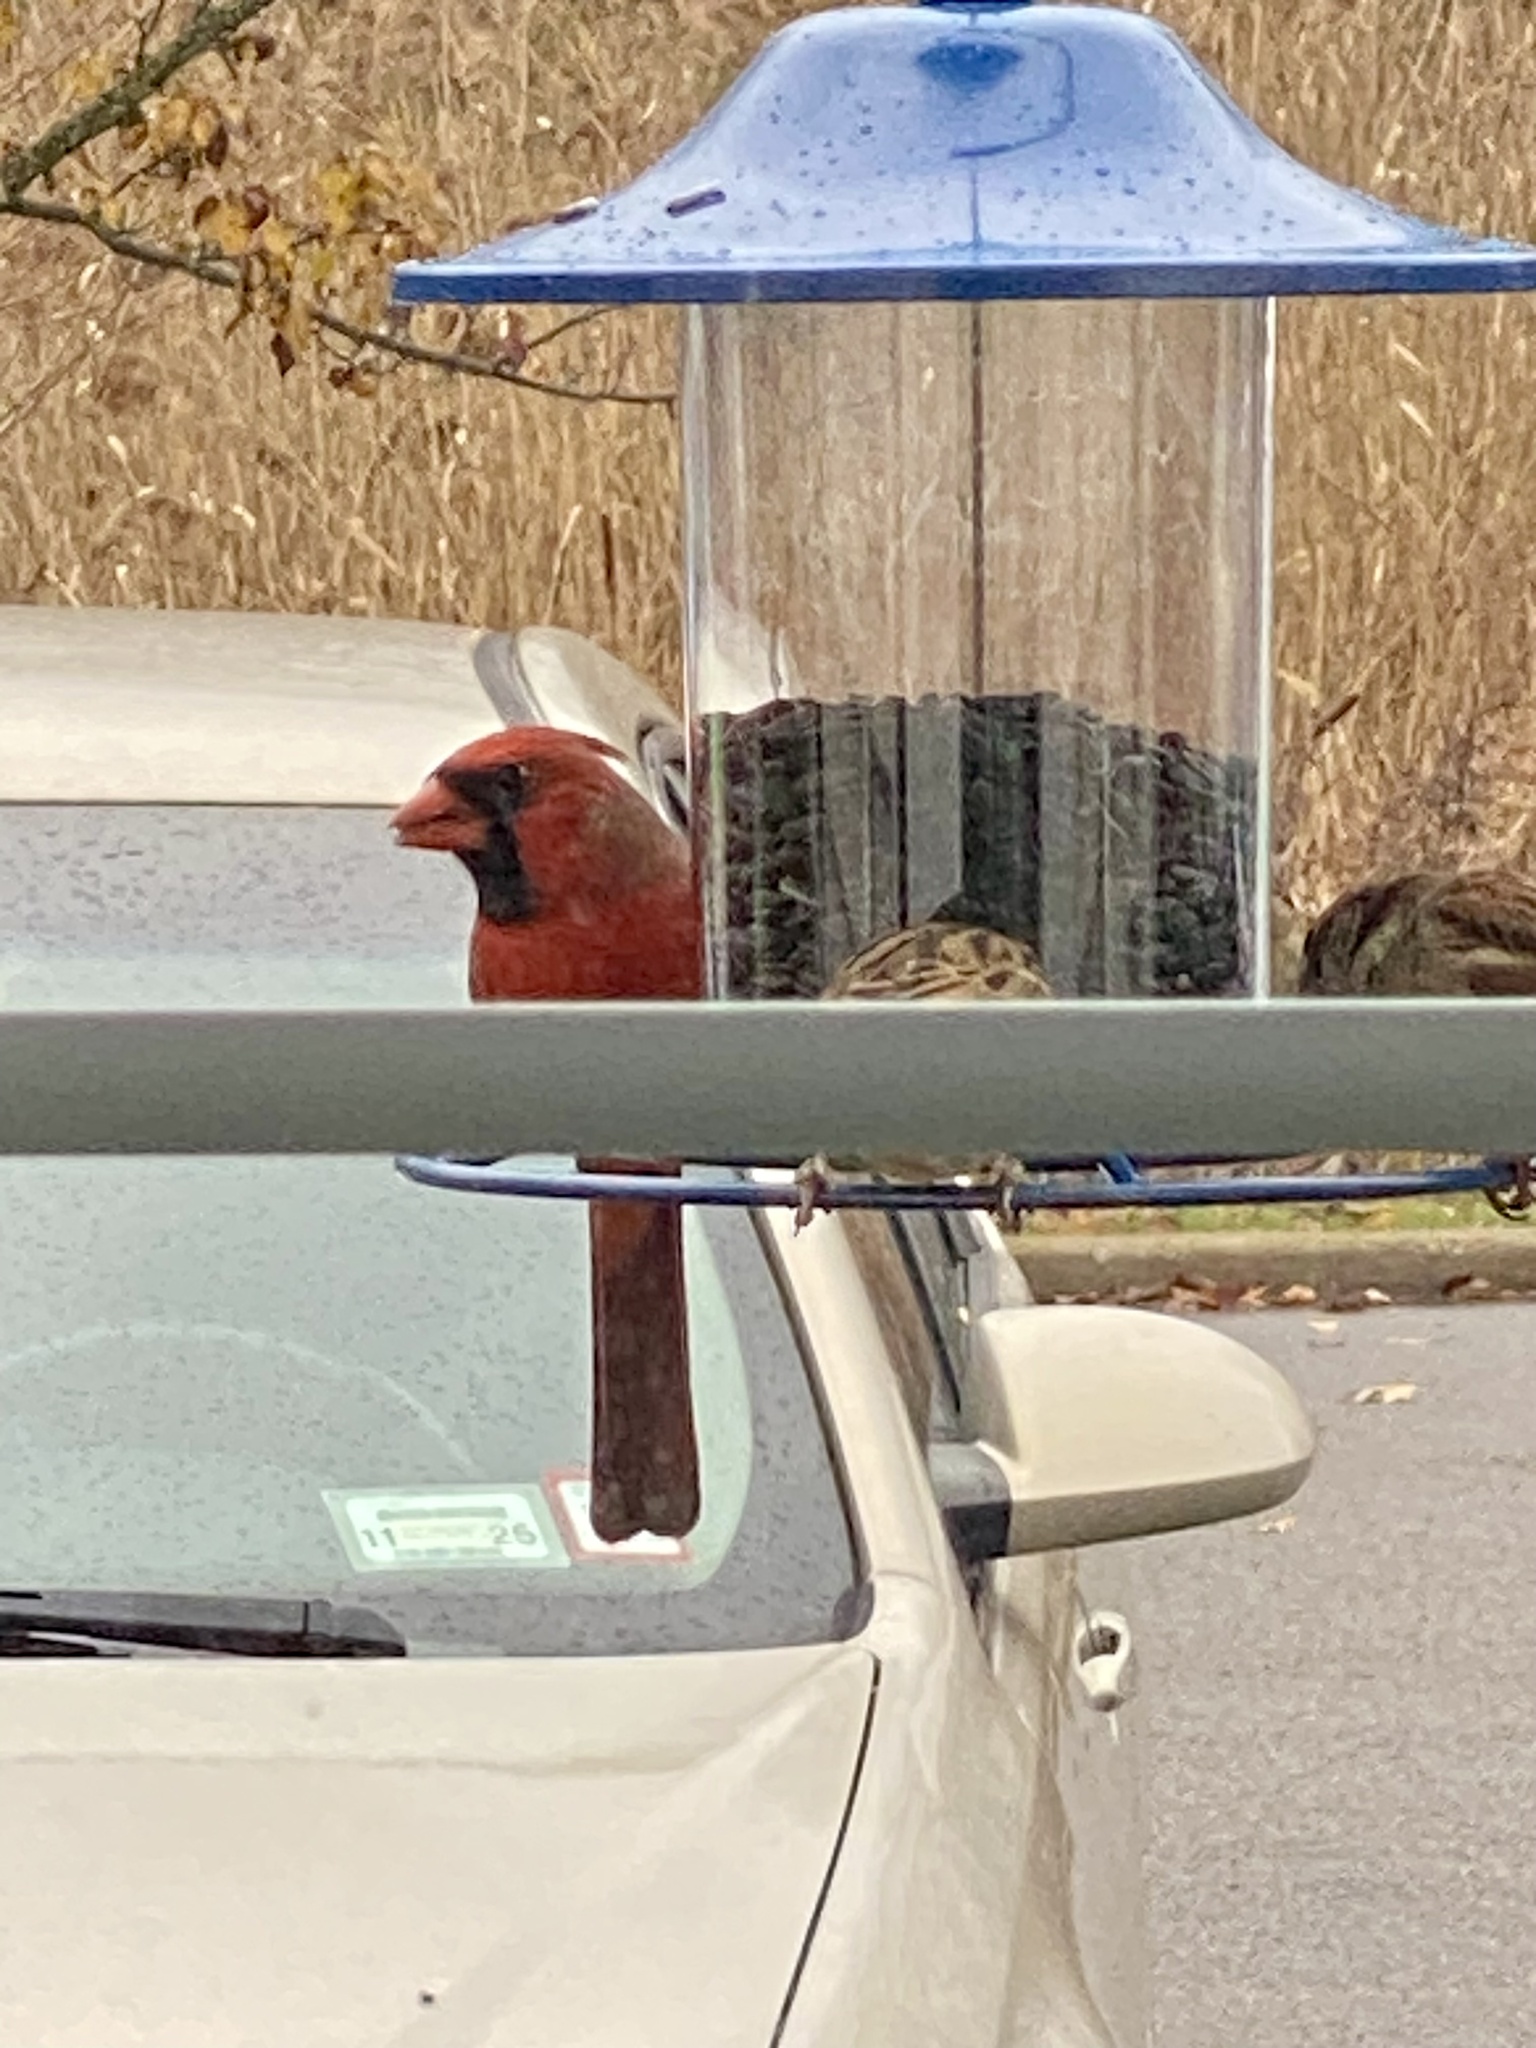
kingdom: Animalia
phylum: Chordata
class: Aves
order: Passeriformes
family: Cardinalidae
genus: Cardinalis
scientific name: Cardinalis cardinalis
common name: Northern cardinal
